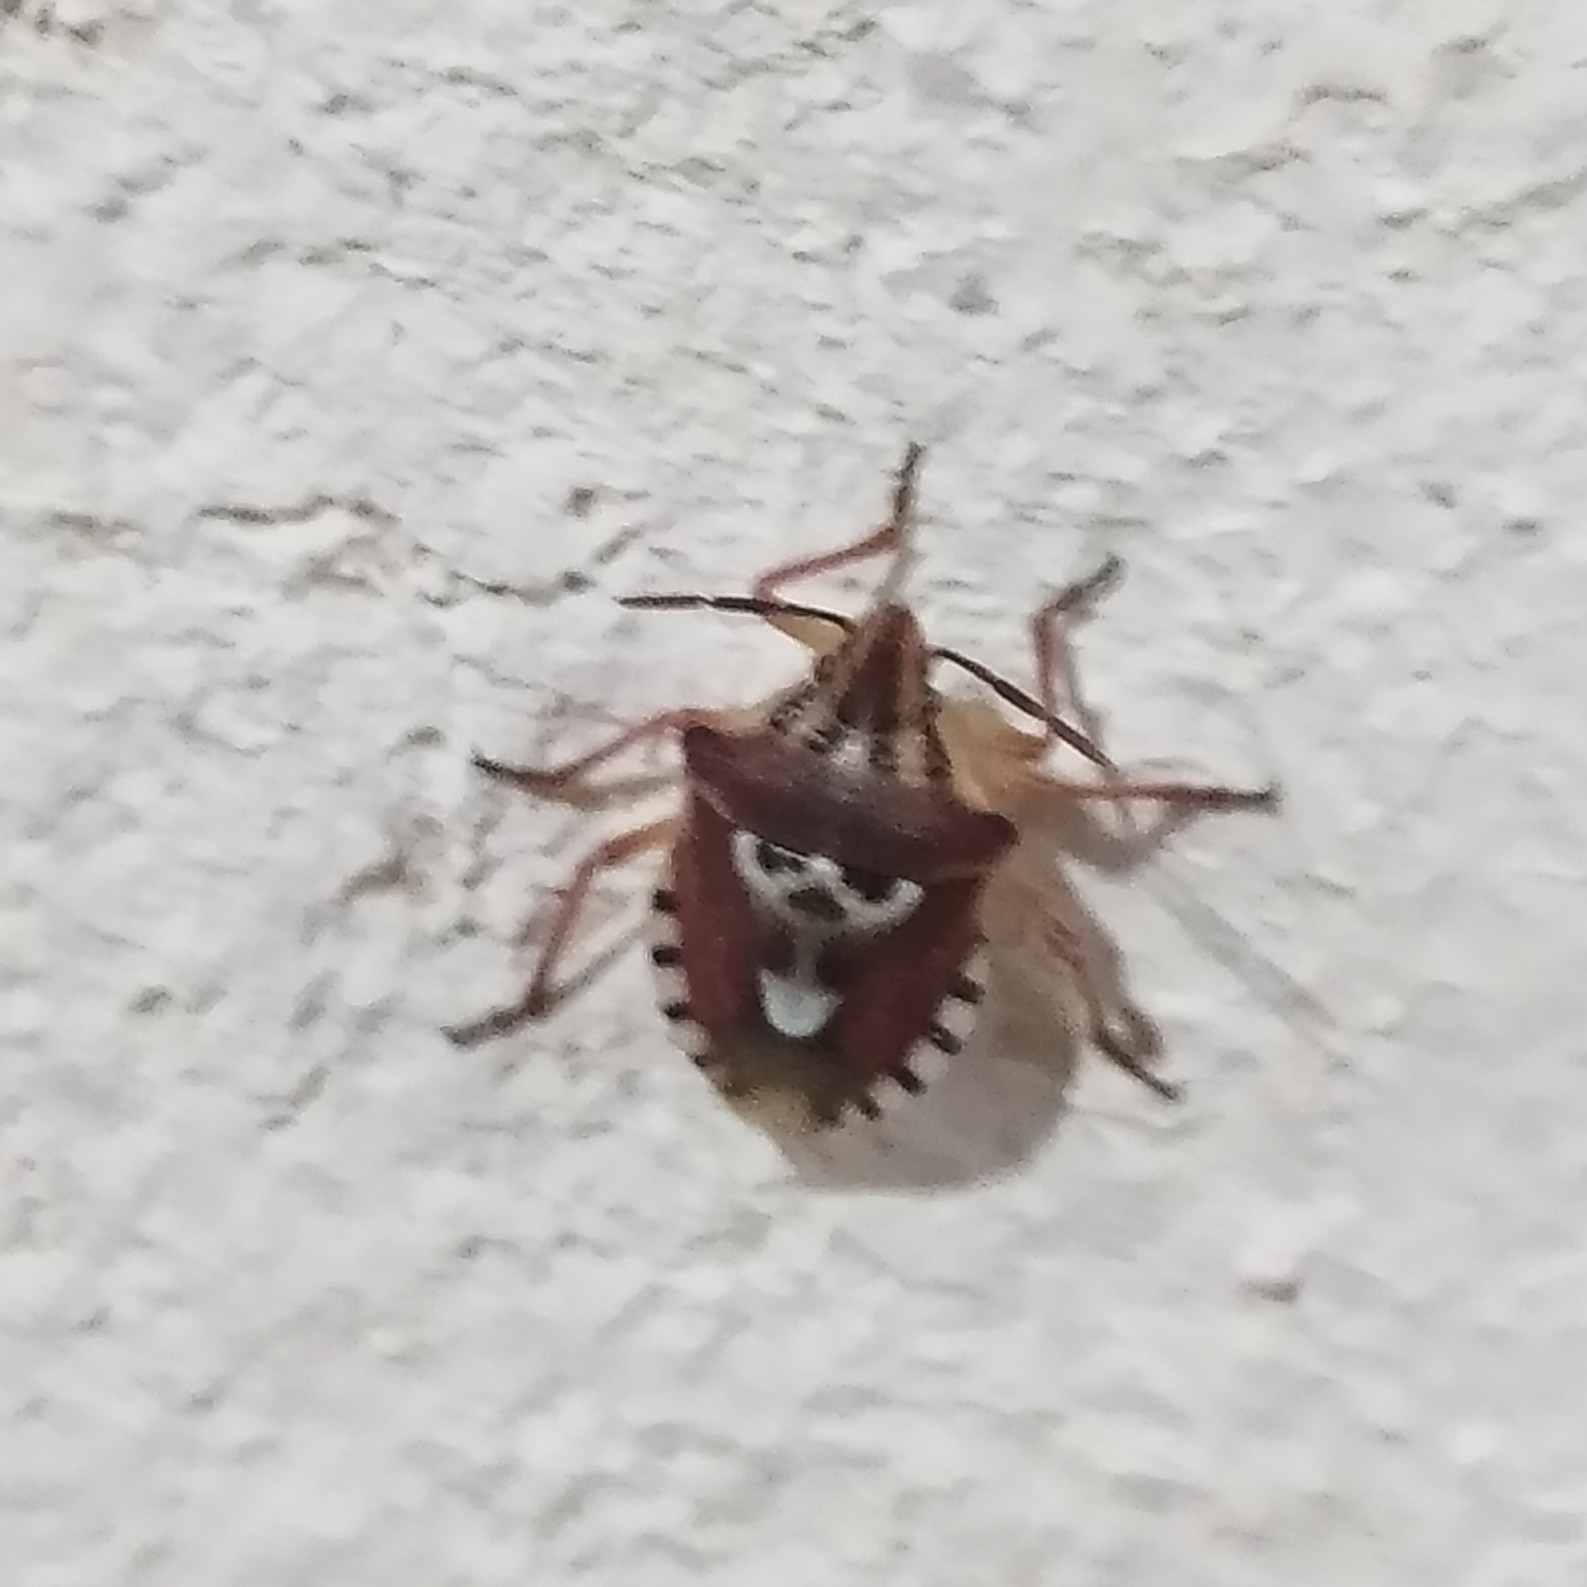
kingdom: Animalia
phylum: Arthropoda
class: Insecta
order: Hemiptera
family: Miridae
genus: Orthops
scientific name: Orthops kalmii
